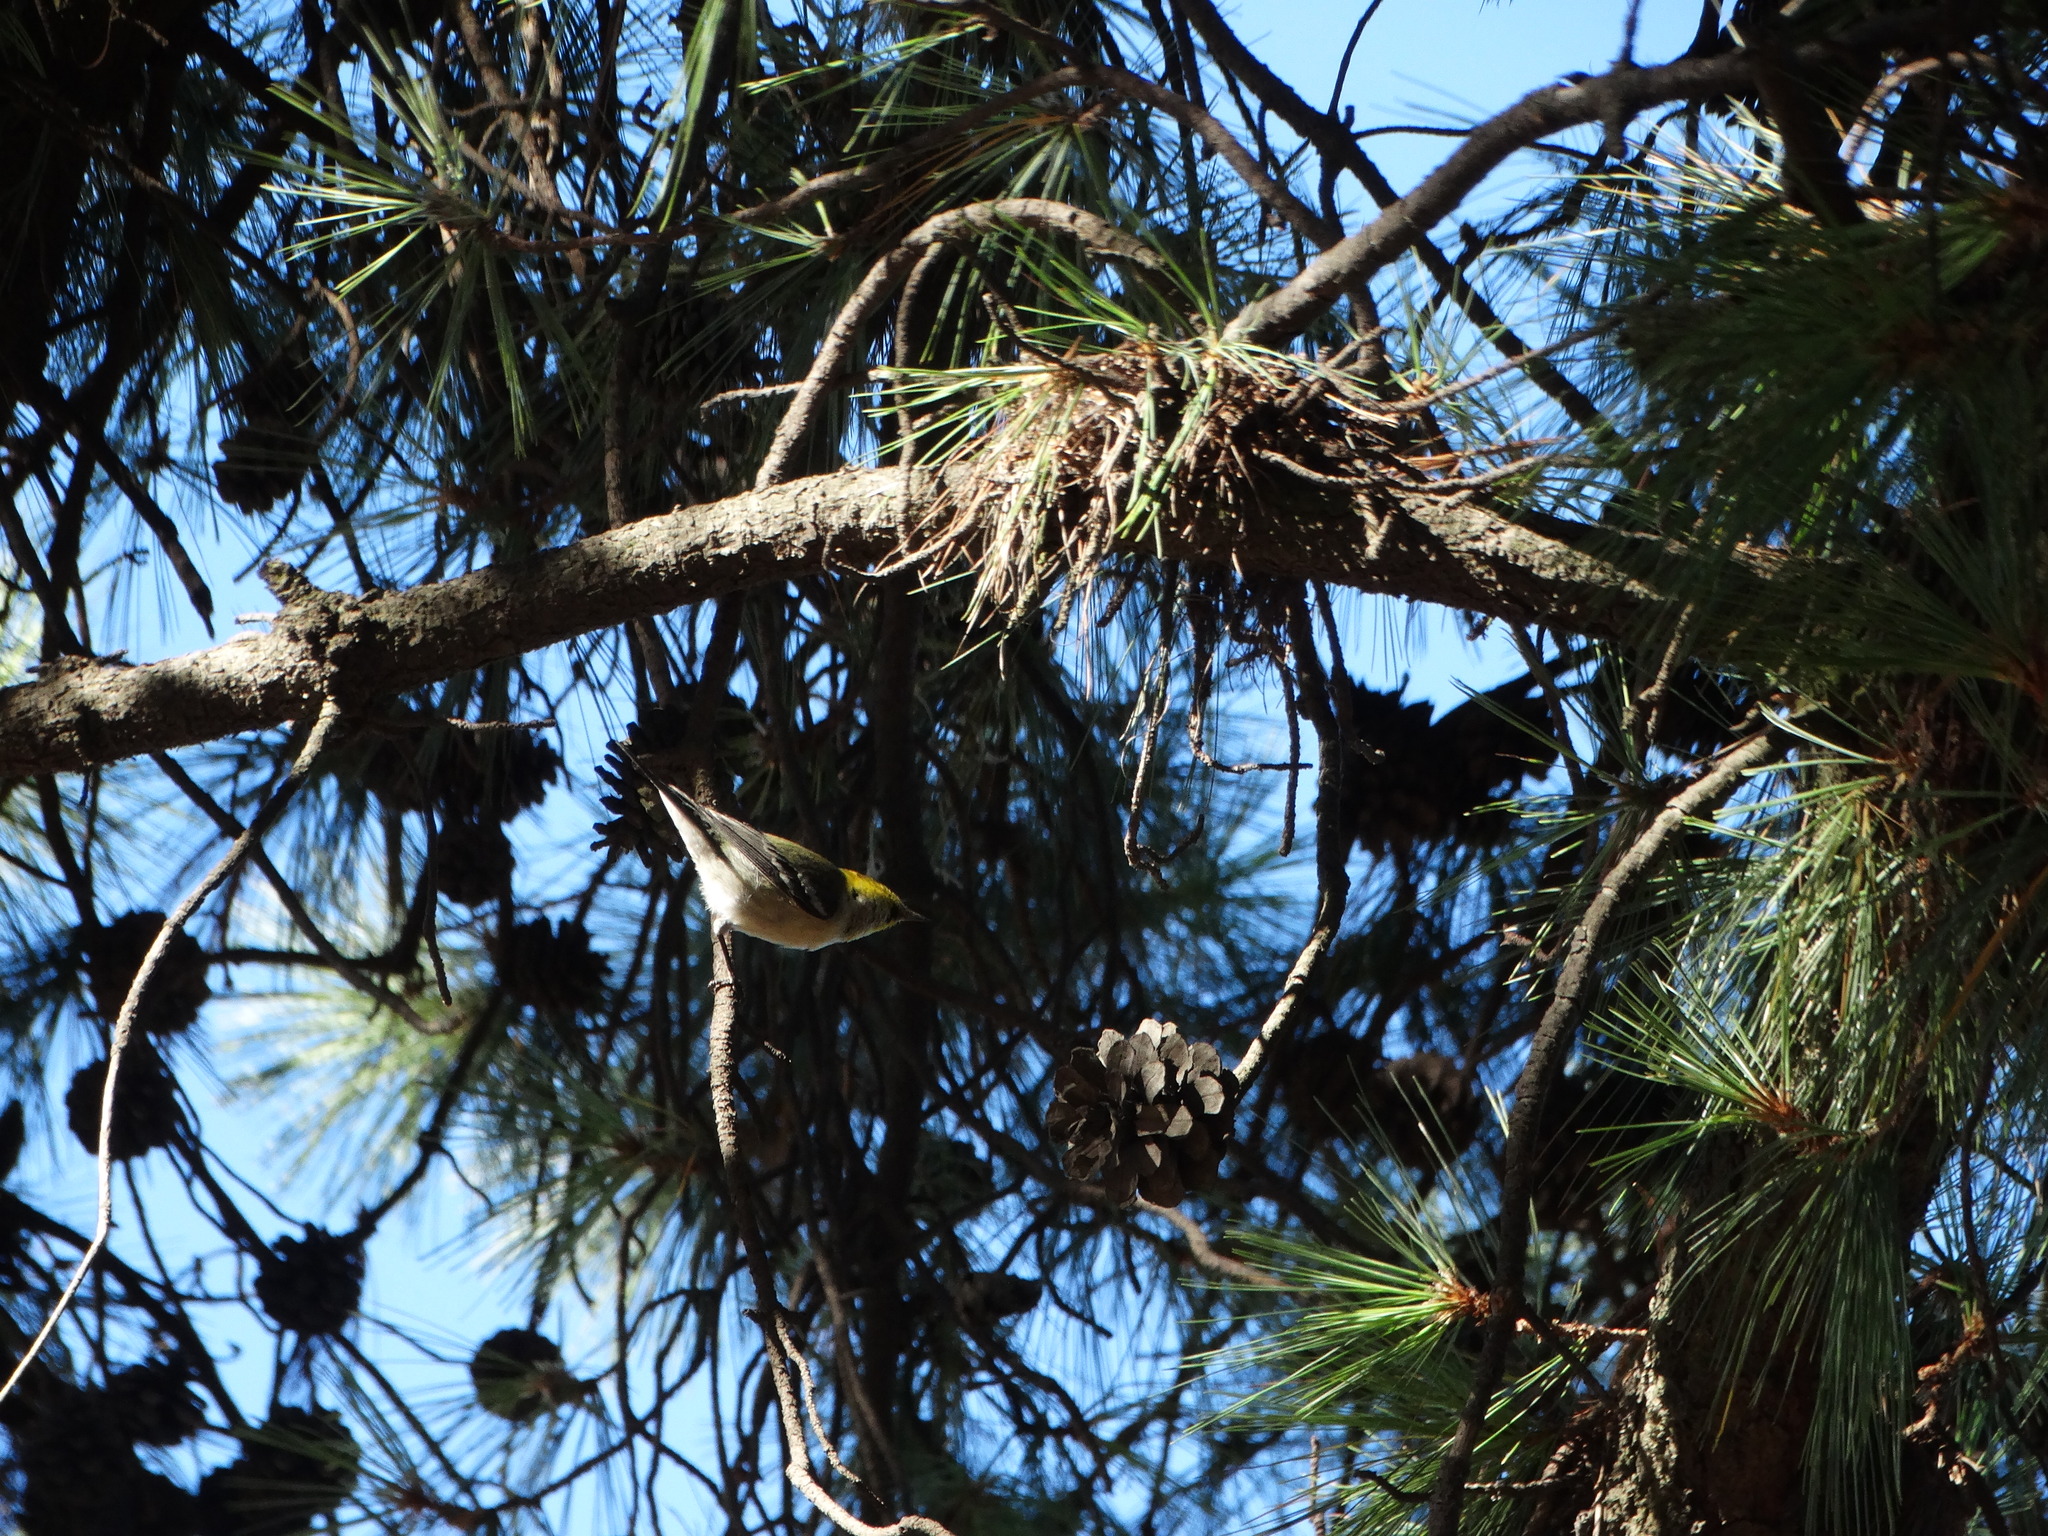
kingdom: Animalia
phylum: Chordata
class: Aves
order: Passeriformes
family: Parulidae
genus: Setophaga
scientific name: Setophaga occidentalis
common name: Hermit warbler
